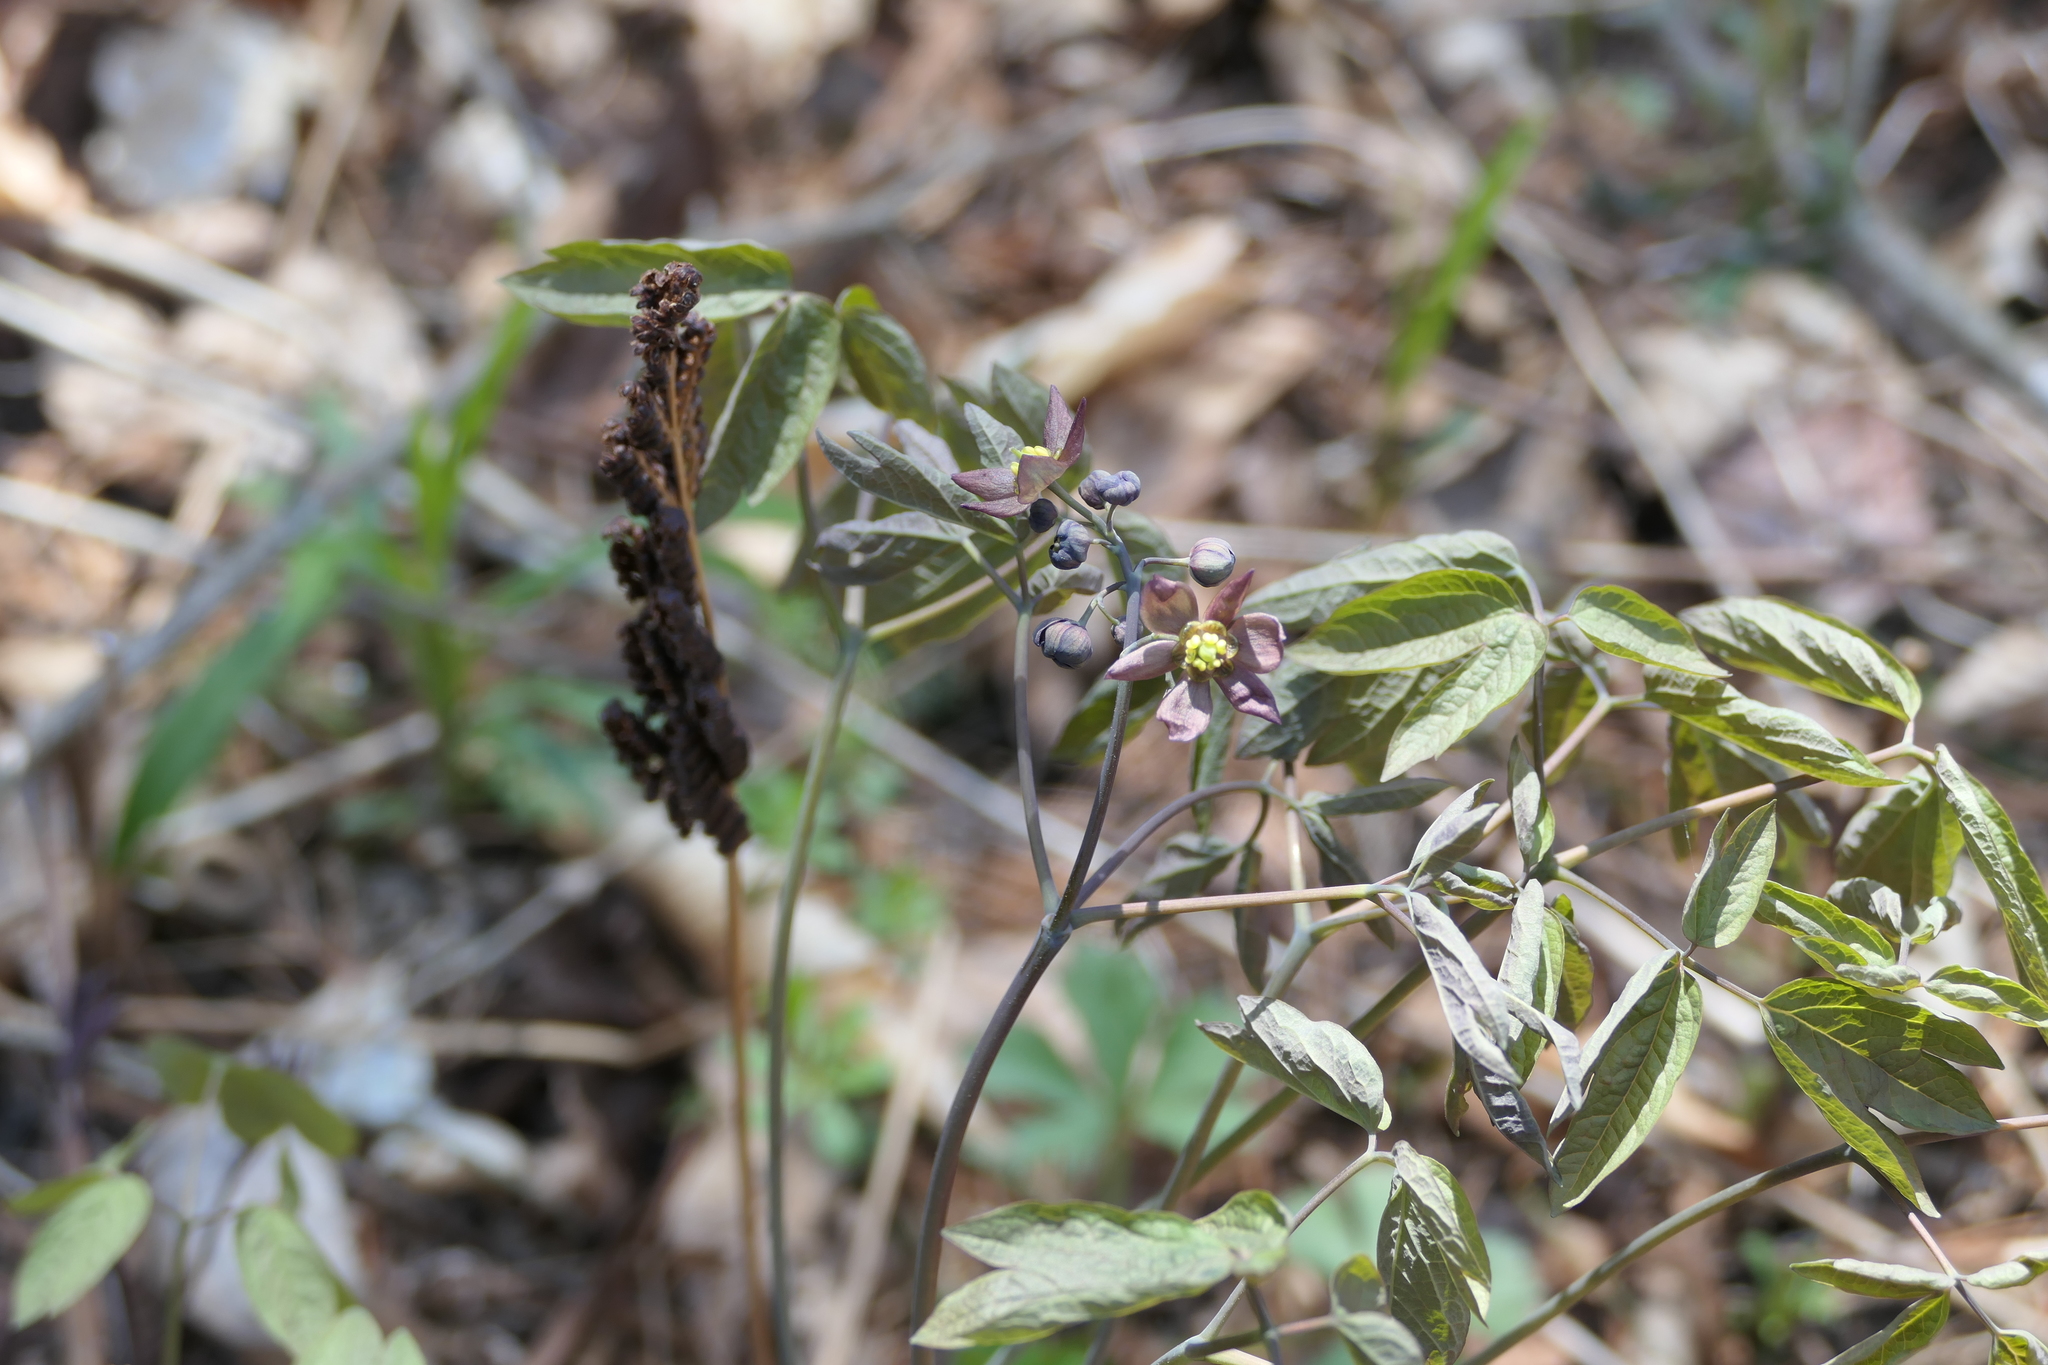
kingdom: Plantae
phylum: Tracheophyta
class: Magnoliopsida
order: Ranunculales
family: Berberidaceae
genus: Caulophyllum
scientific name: Caulophyllum giganteum
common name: Blue cohosh
